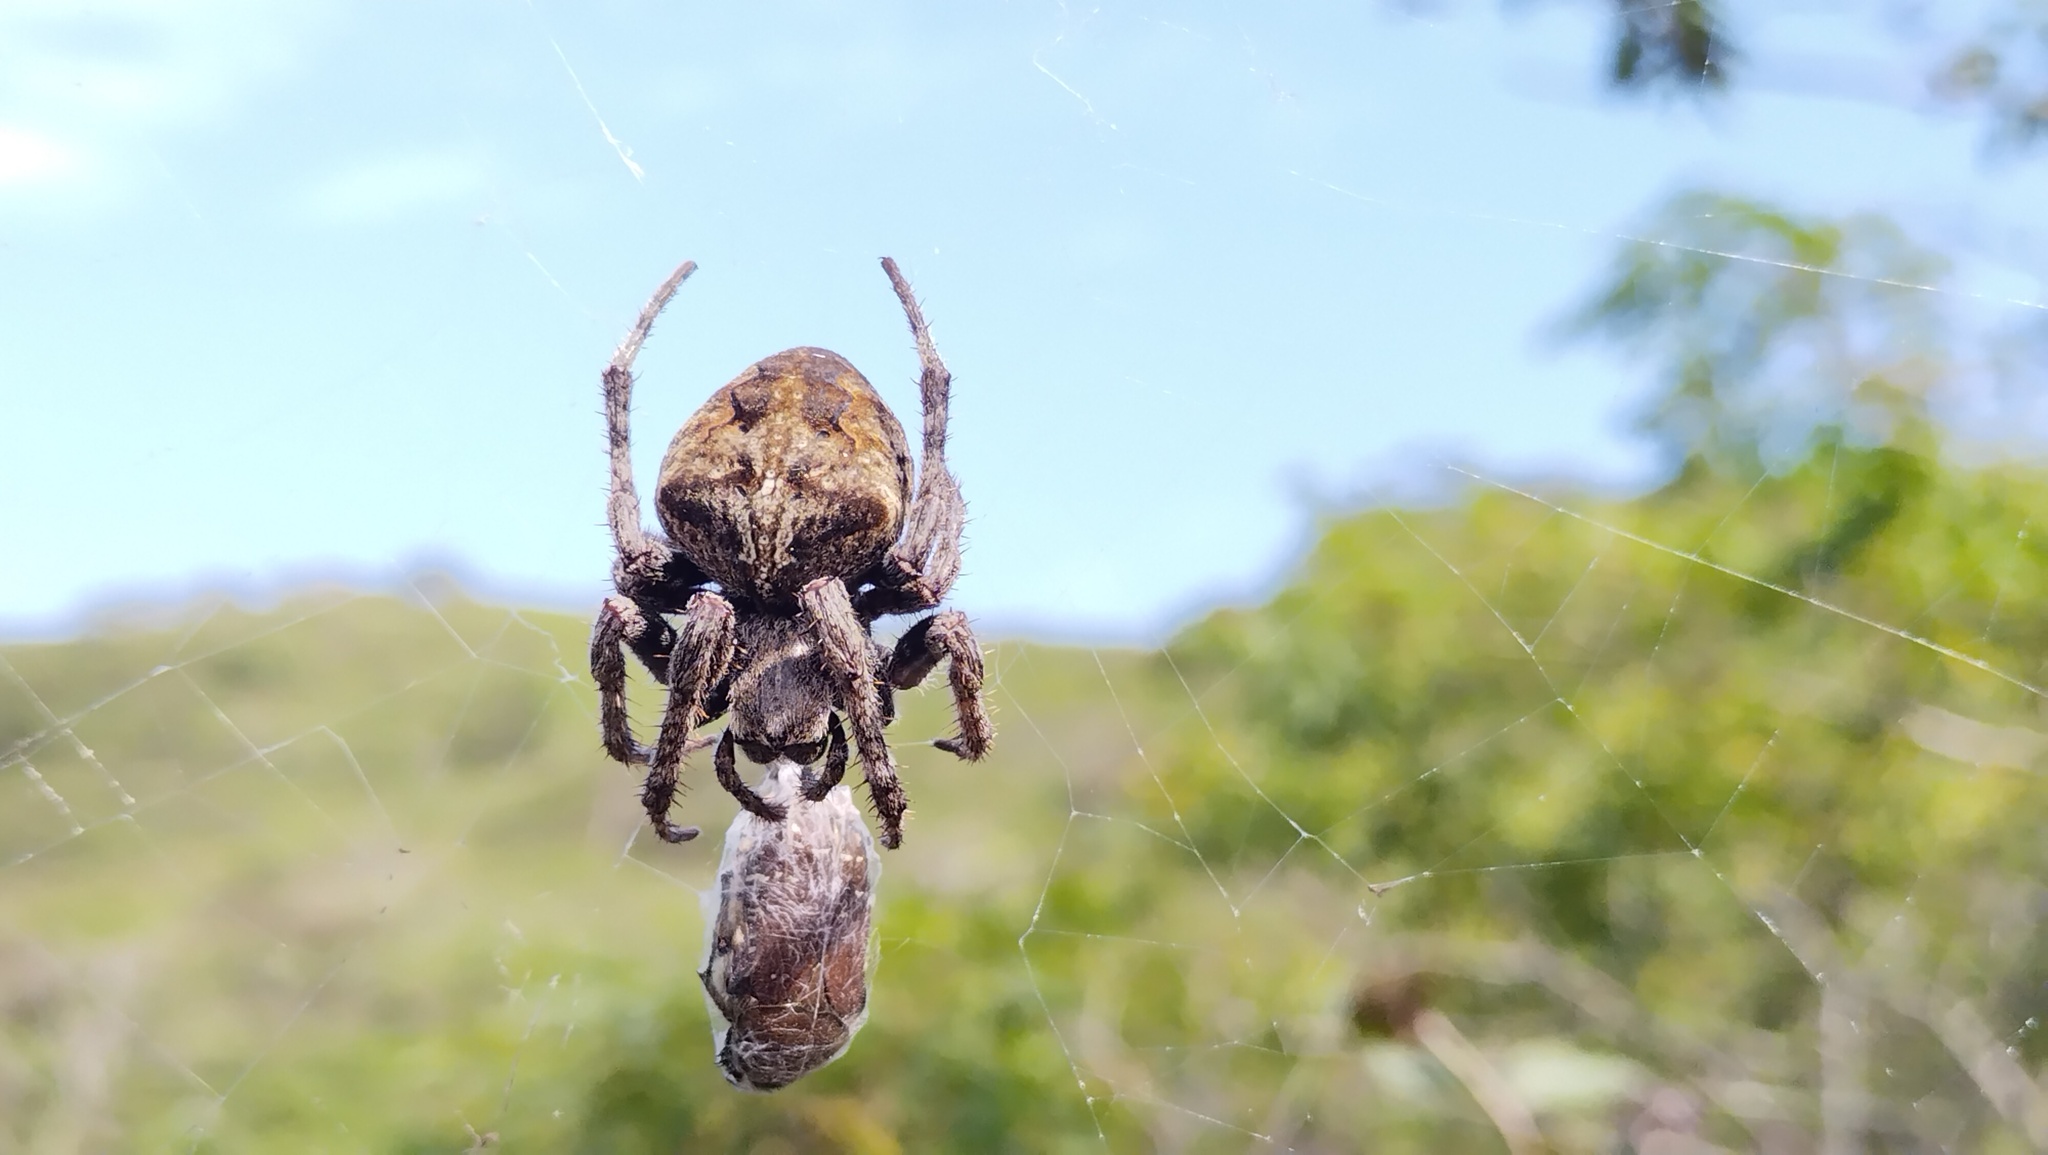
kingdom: Animalia
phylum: Arthropoda
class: Arachnida
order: Araneae
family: Araneidae
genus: Araneus
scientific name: Araneus angulatus
